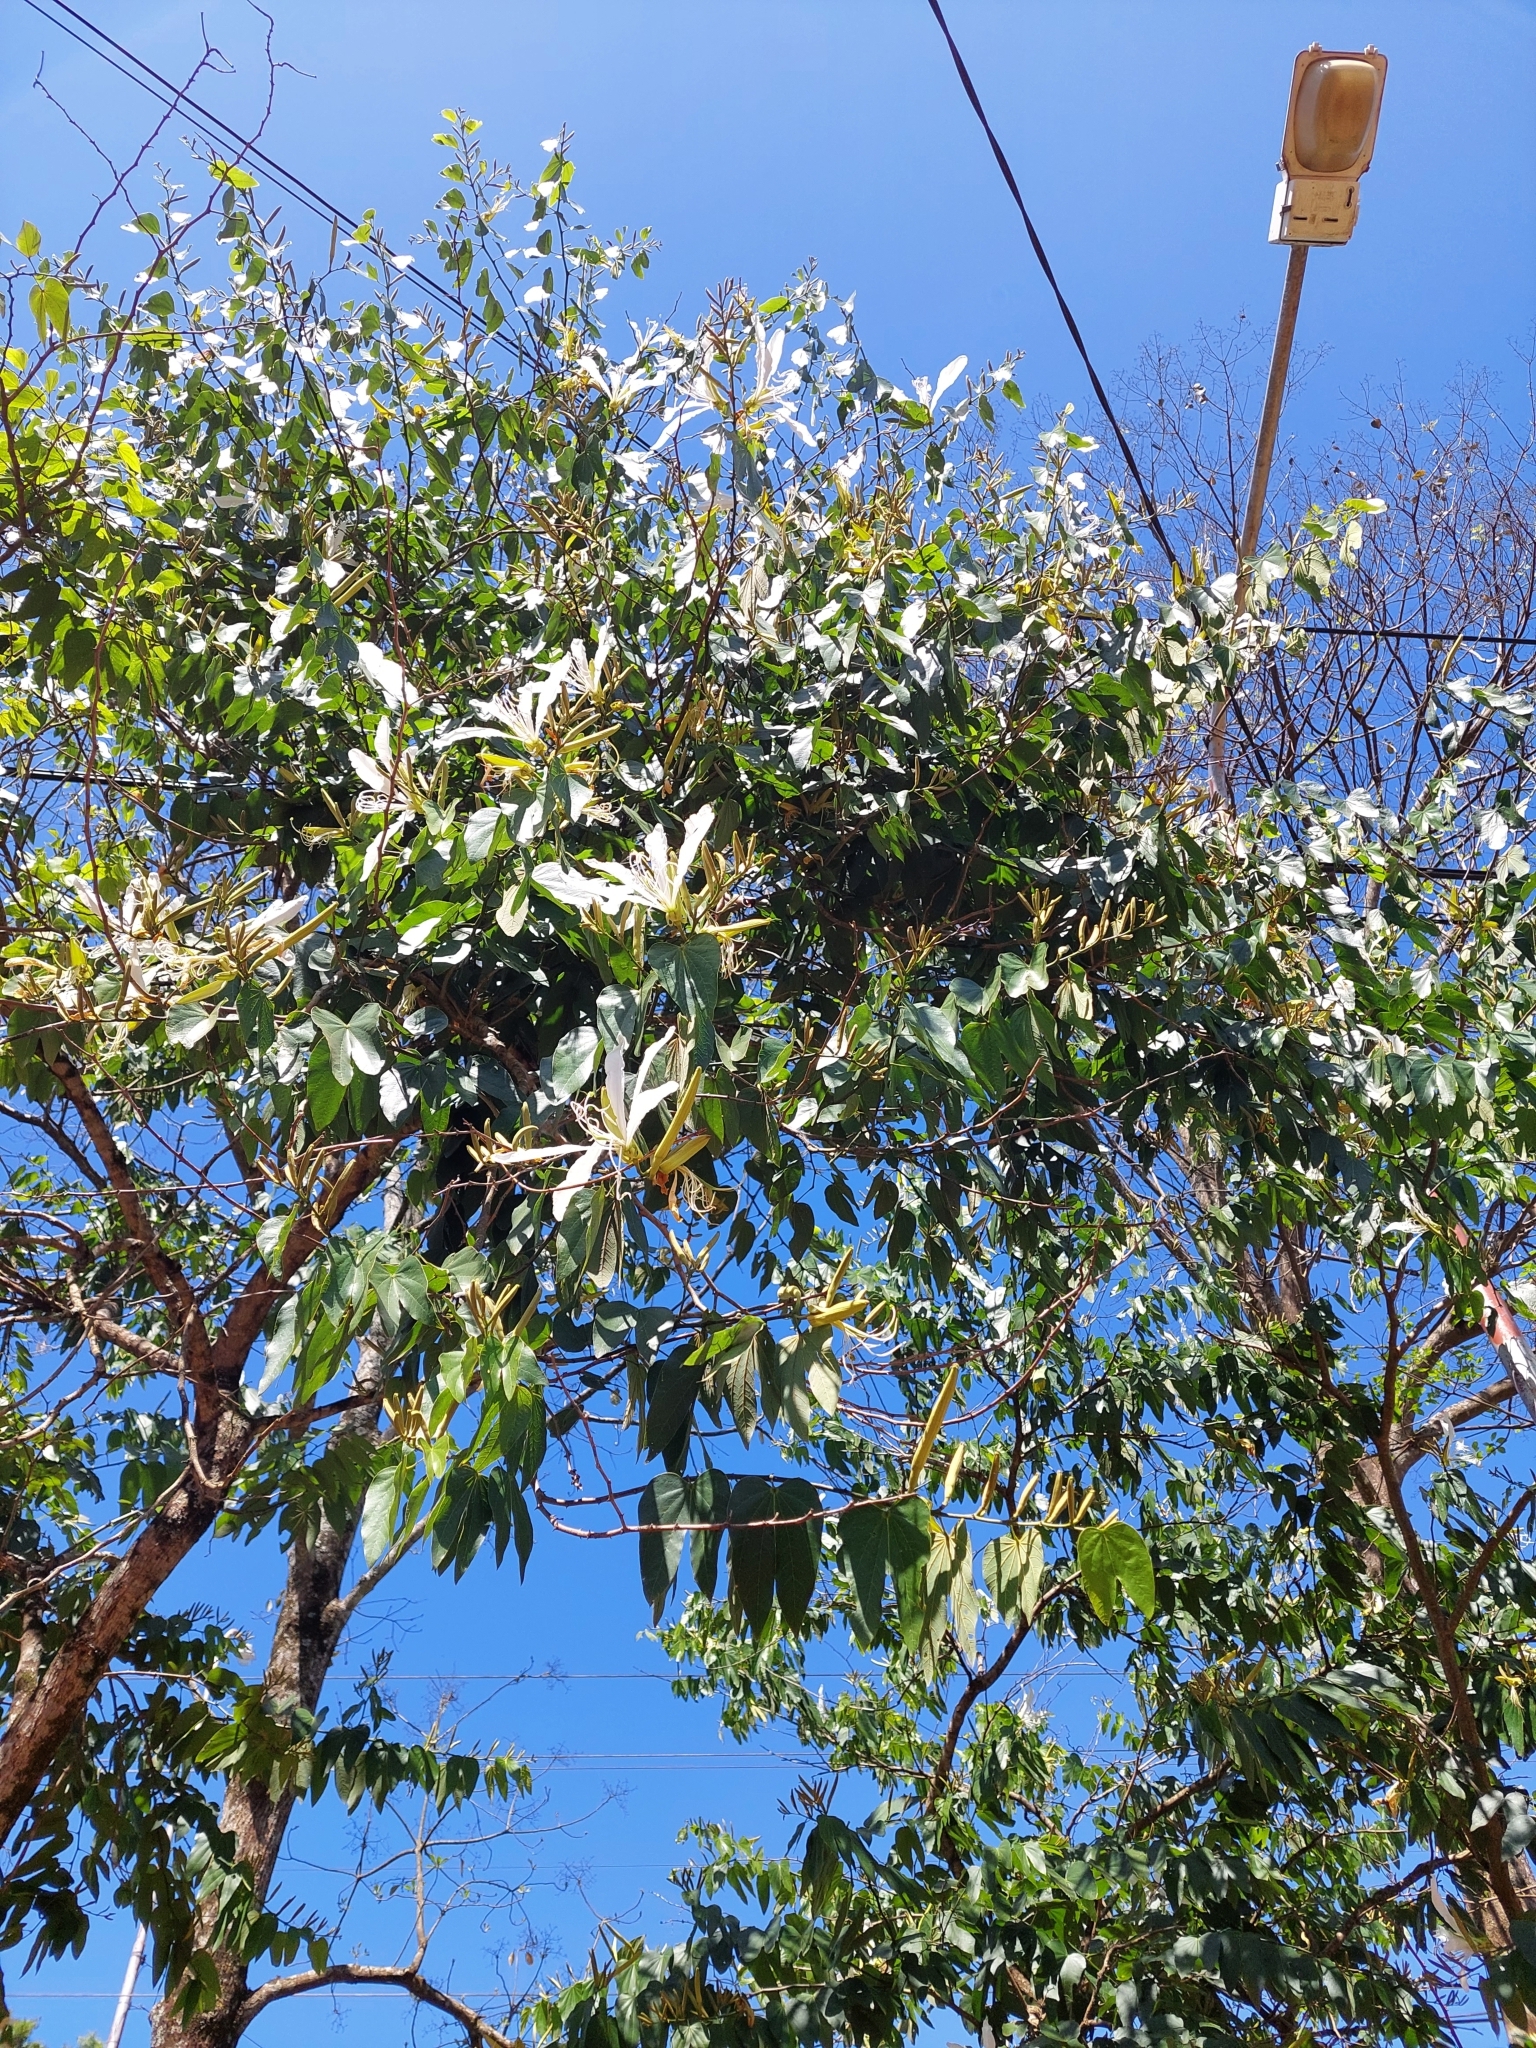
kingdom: Plantae
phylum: Tracheophyta
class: Magnoliopsida
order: Fabales
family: Fabaceae
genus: Bauhinia
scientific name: Bauhinia forficata
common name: Orchid tree
